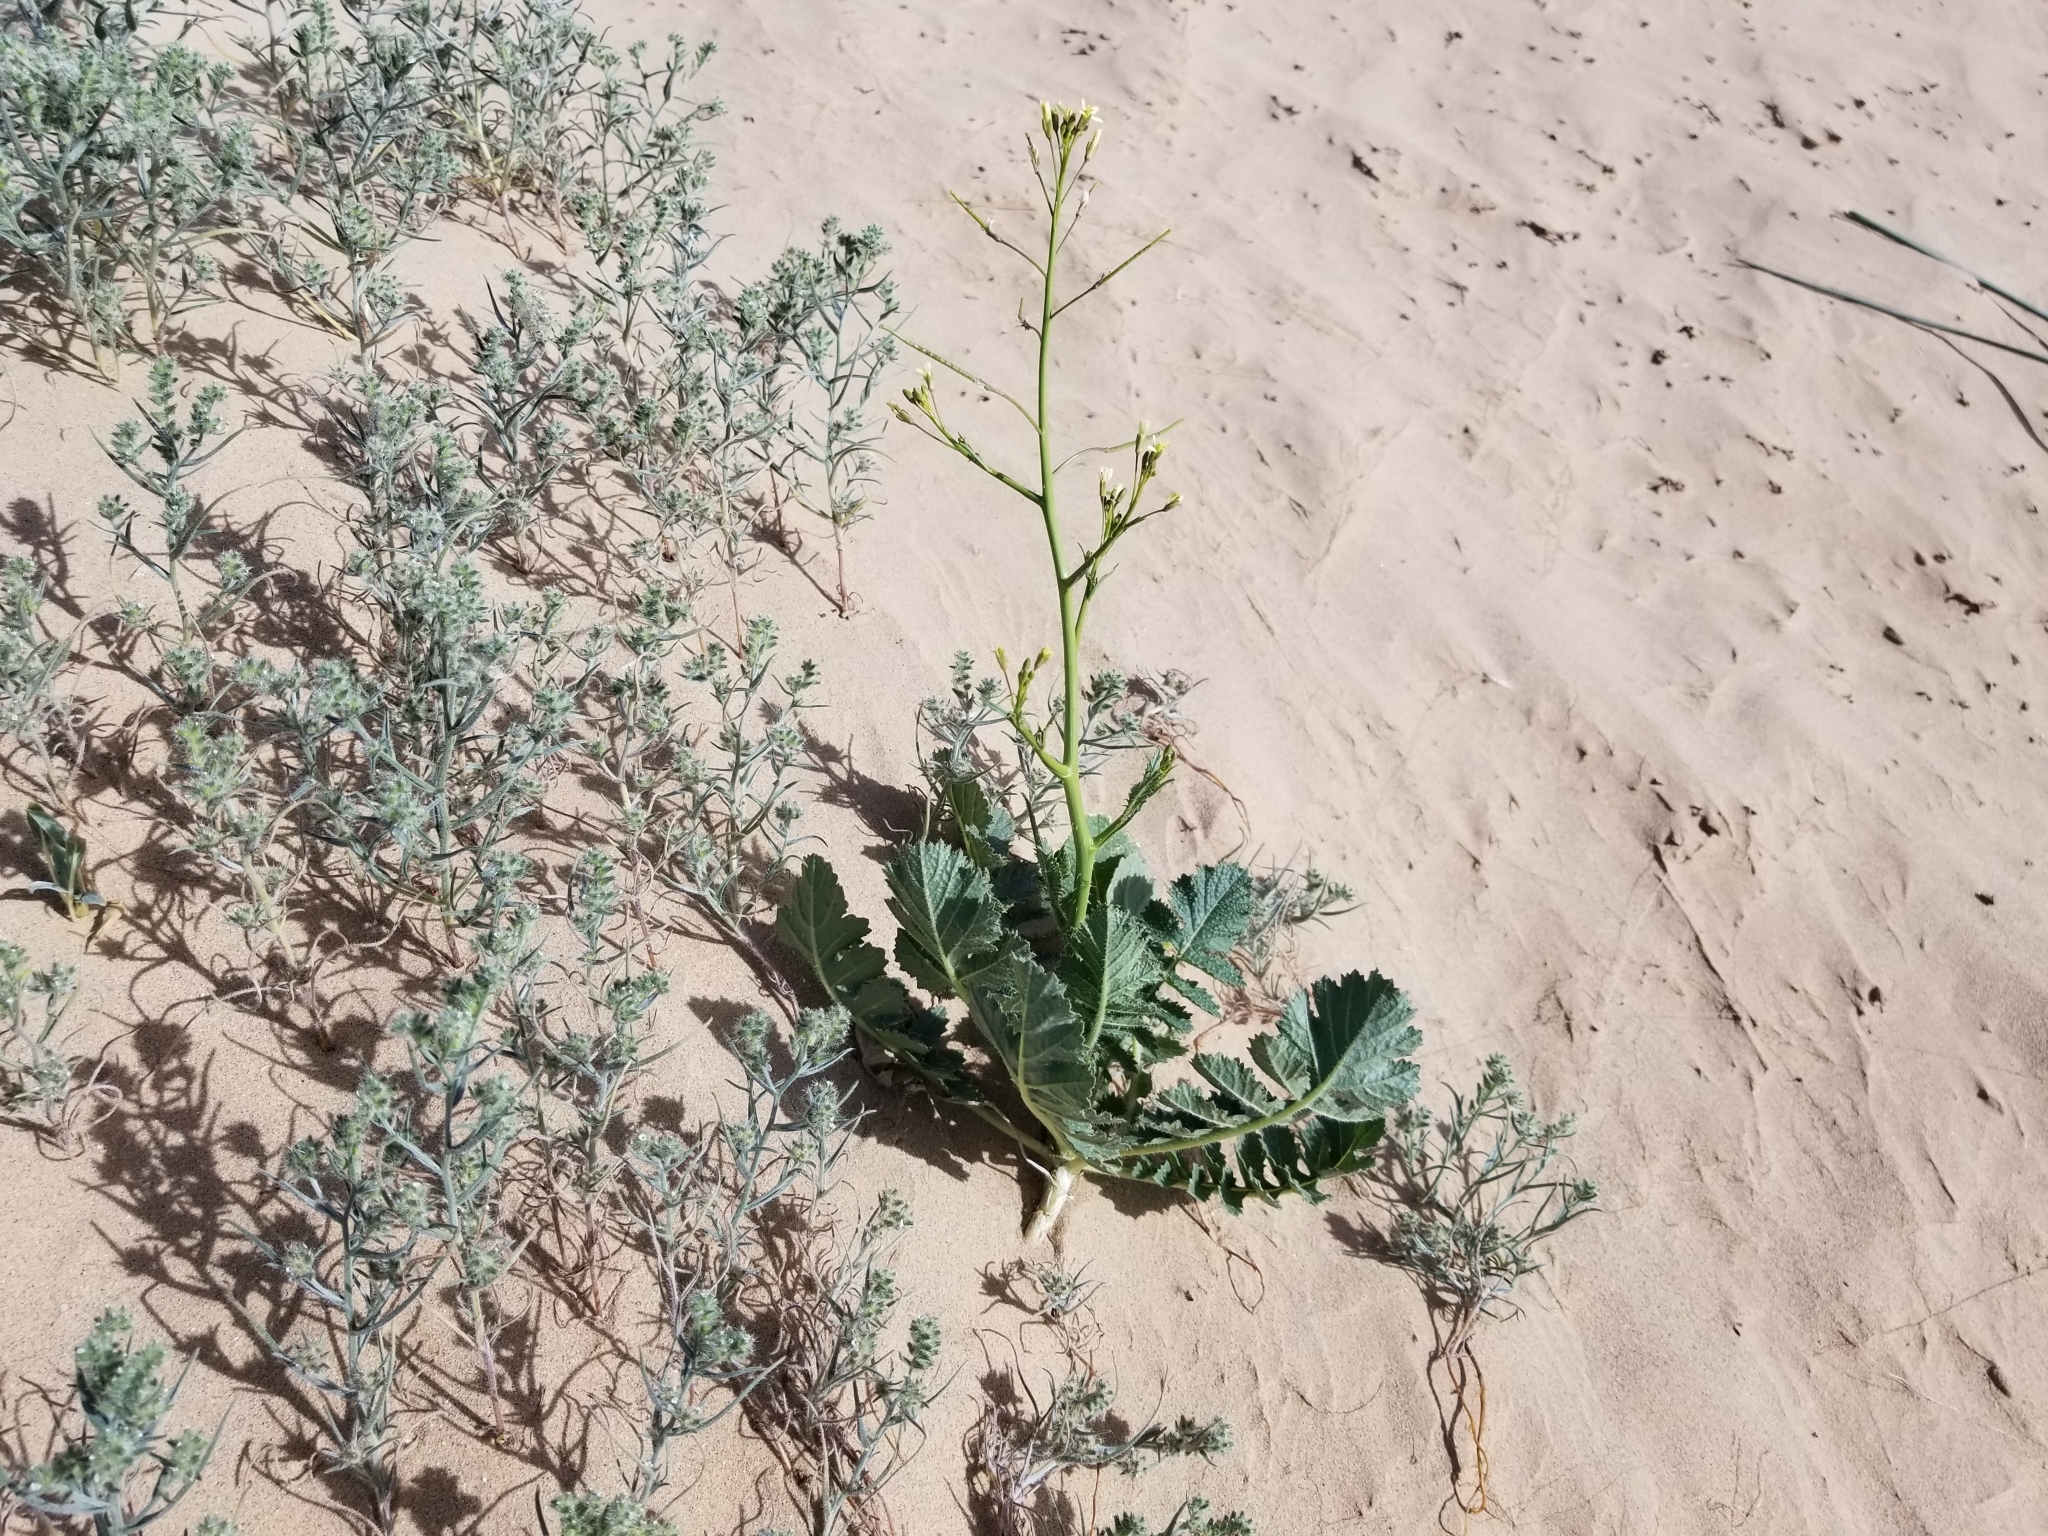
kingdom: Plantae
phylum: Tracheophyta
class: Magnoliopsida
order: Brassicales
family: Brassicaceae
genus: Brassica
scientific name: Brassica tournefortii
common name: Pale cabbage
